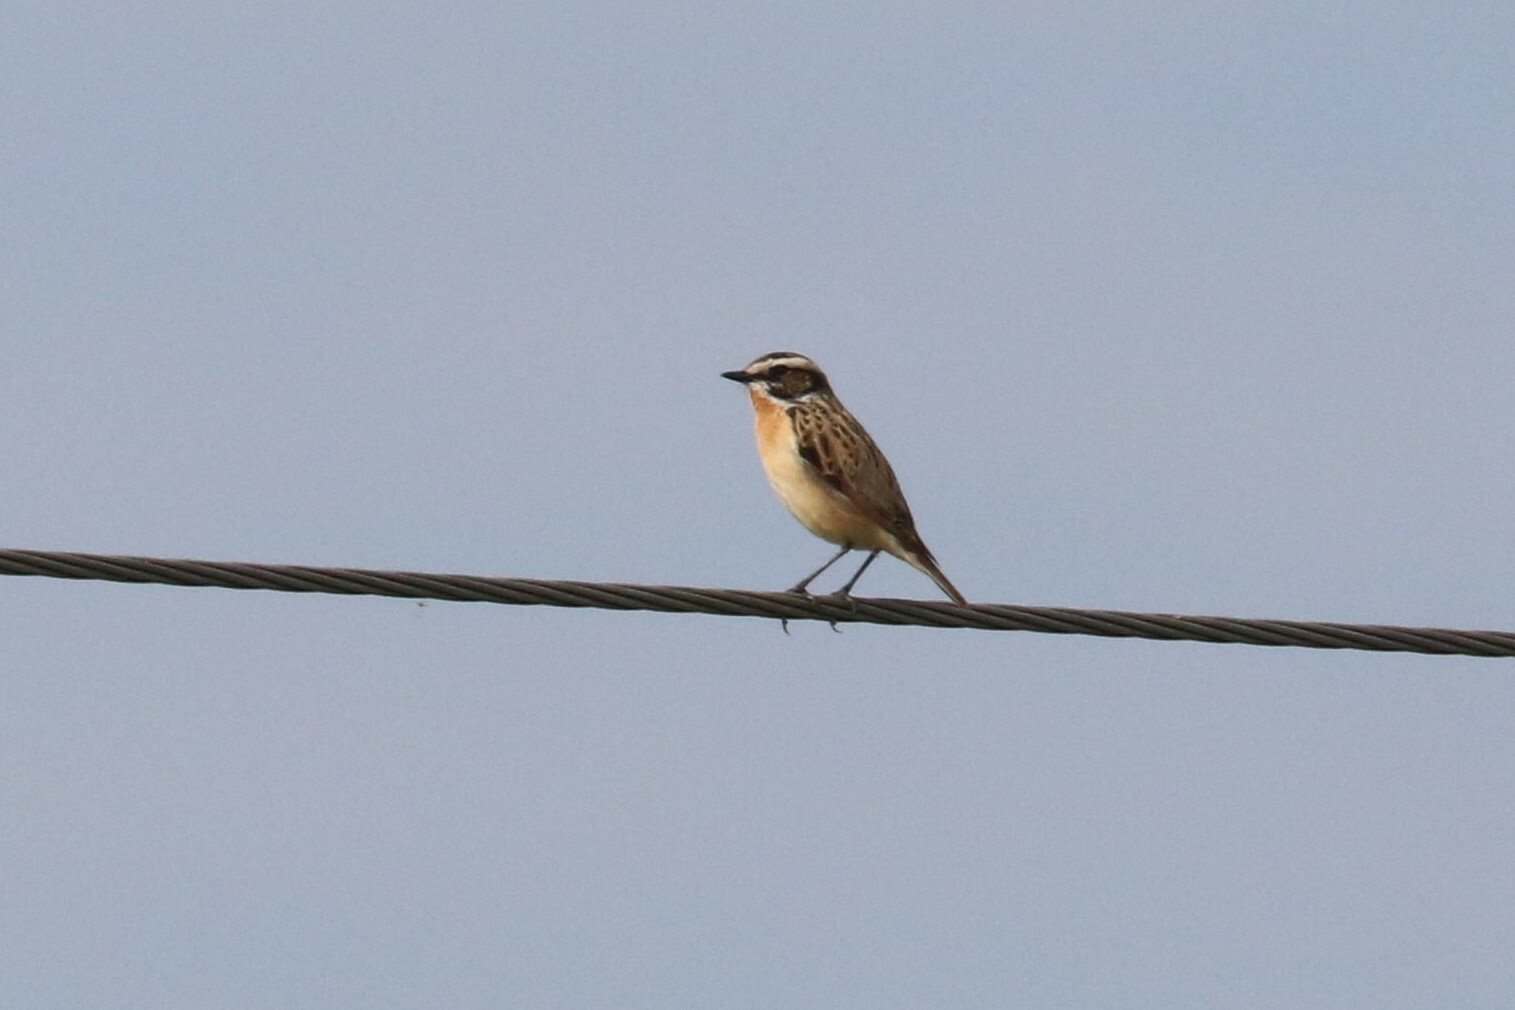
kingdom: Animalia
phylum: Chordata
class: Aves
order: Passeriformes
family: Muscicapidae
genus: Saxicola
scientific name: Saxicola rubetra
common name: Whinchat
